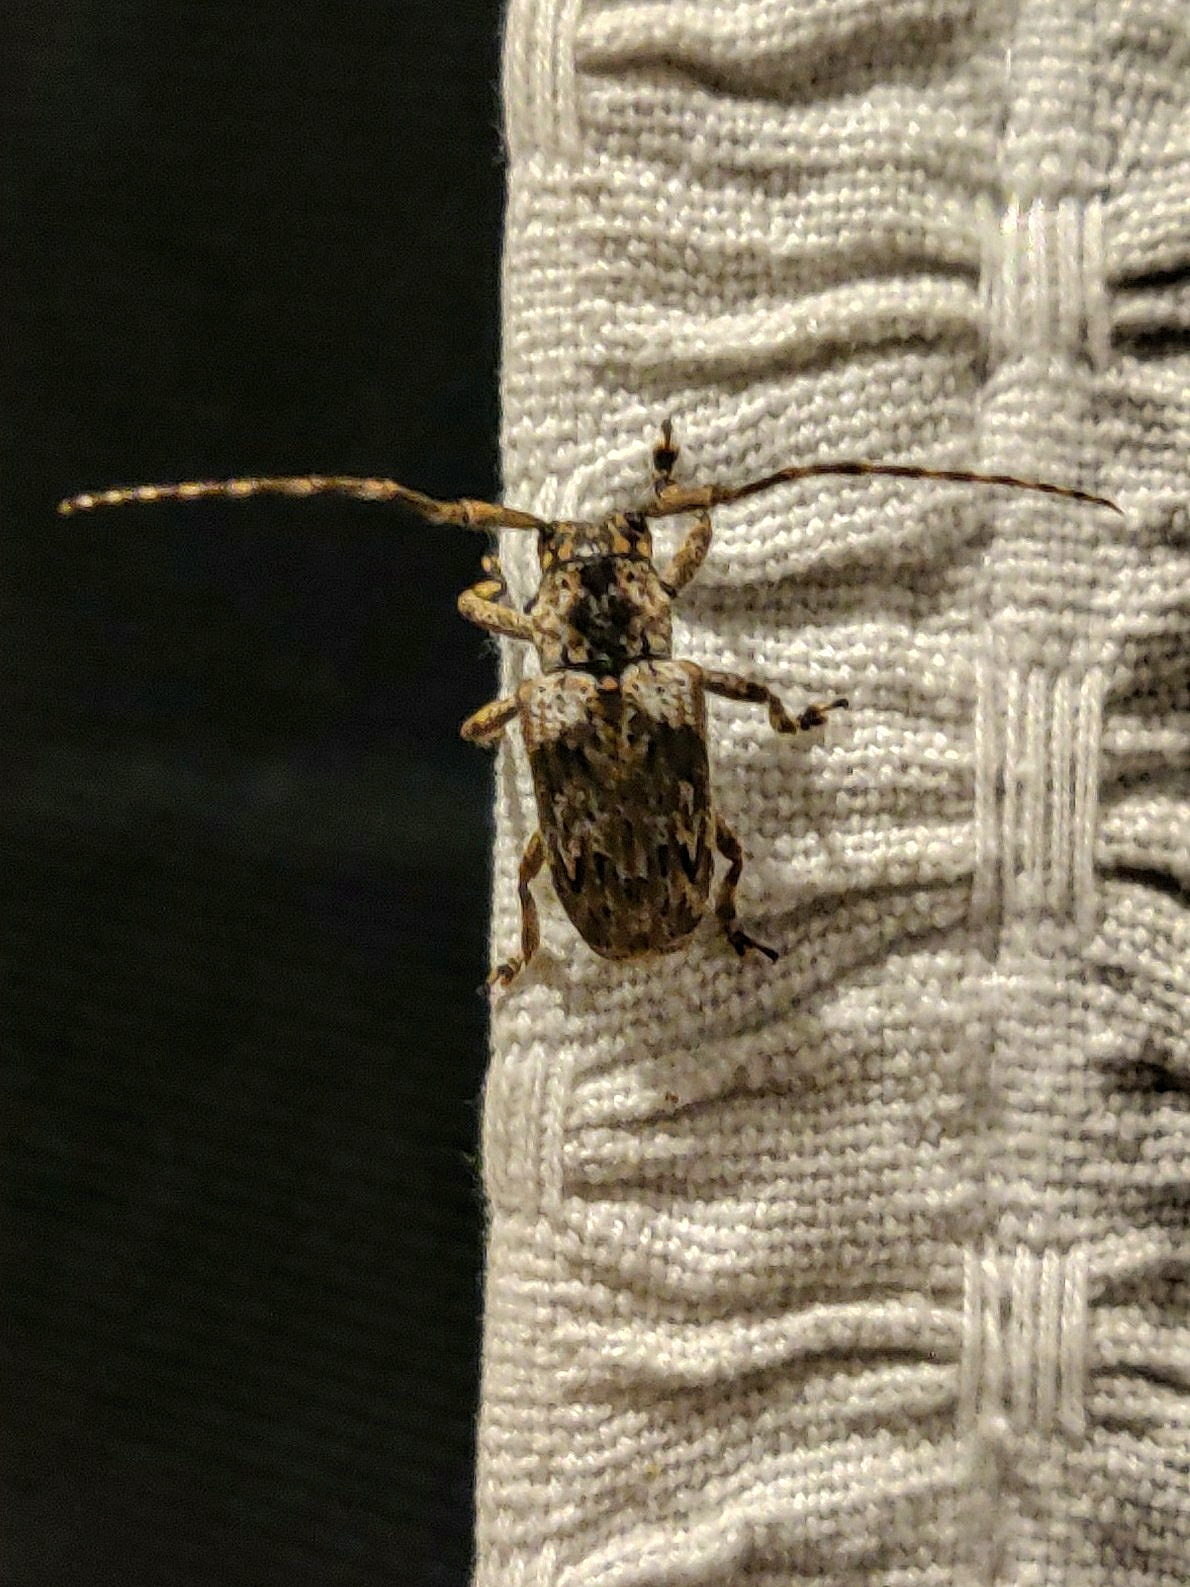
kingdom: Animalia
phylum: Arthropoda
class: Insecta
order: Coleoptera
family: Cerambycidae
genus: Coptops
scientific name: Coptops aedificator
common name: Long-horned beetle
